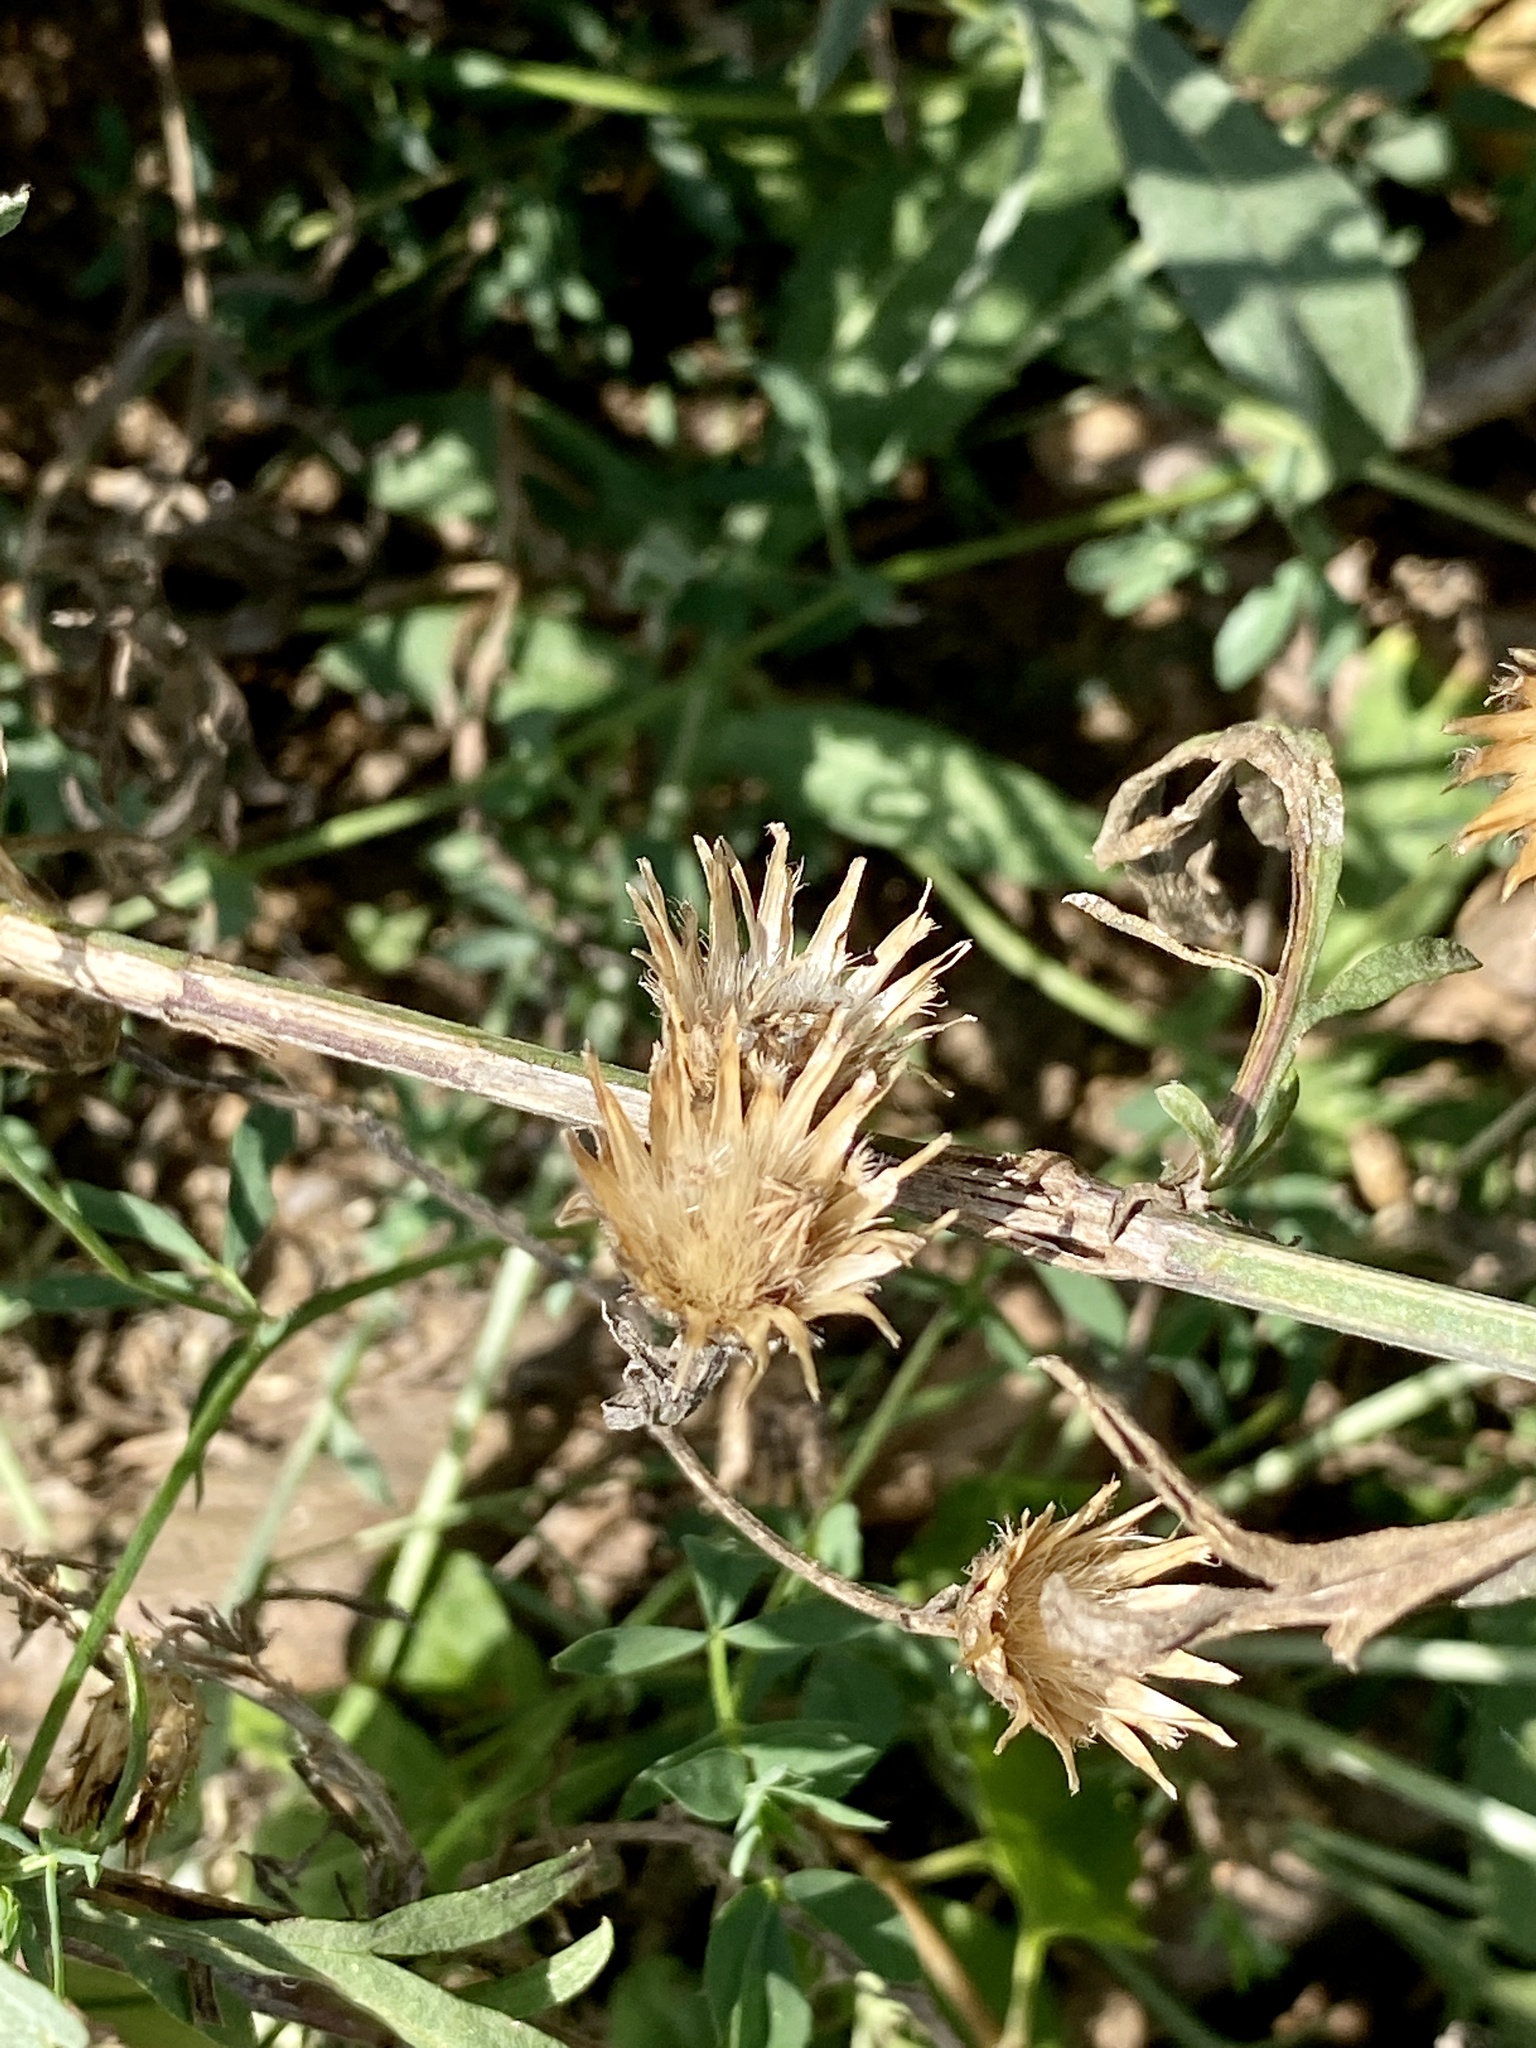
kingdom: Plantae
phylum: Tracheophyta
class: Magnoliopsida
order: Asterales
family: Asteraceae
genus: Centaurea
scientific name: Centaurea stoebe
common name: Spotted knapweed
